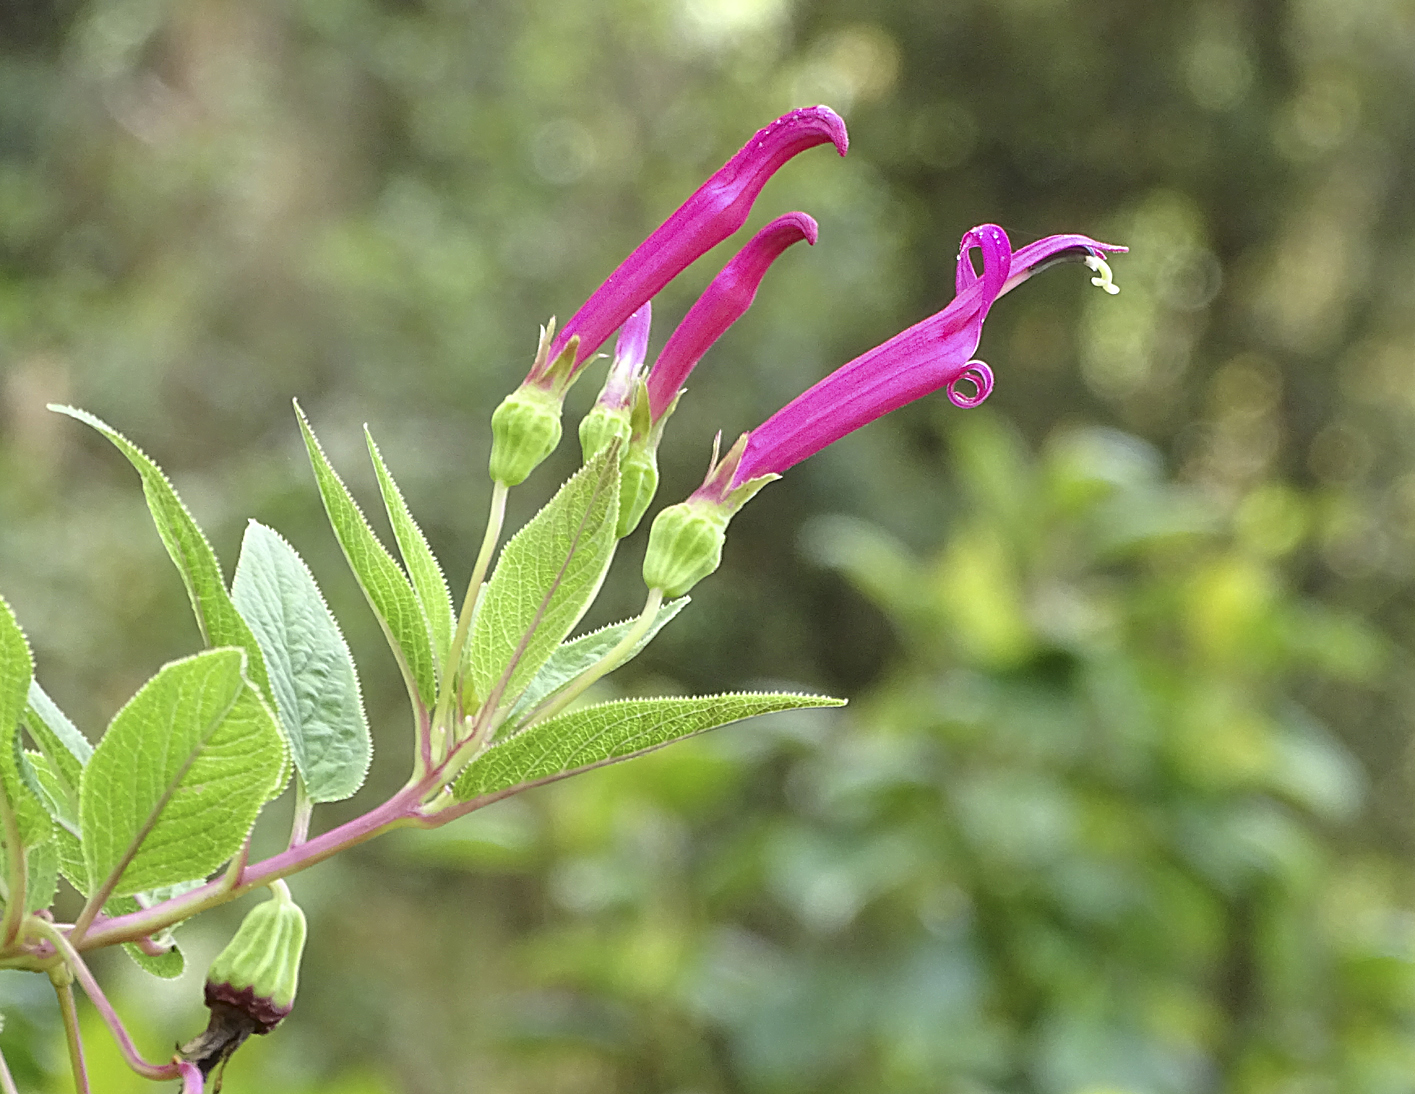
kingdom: Plantae
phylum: Tracheophyta
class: Magnoliopsida
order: Asterales
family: Campanulaceae
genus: Centropogon
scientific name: Centropogon talamancensis
